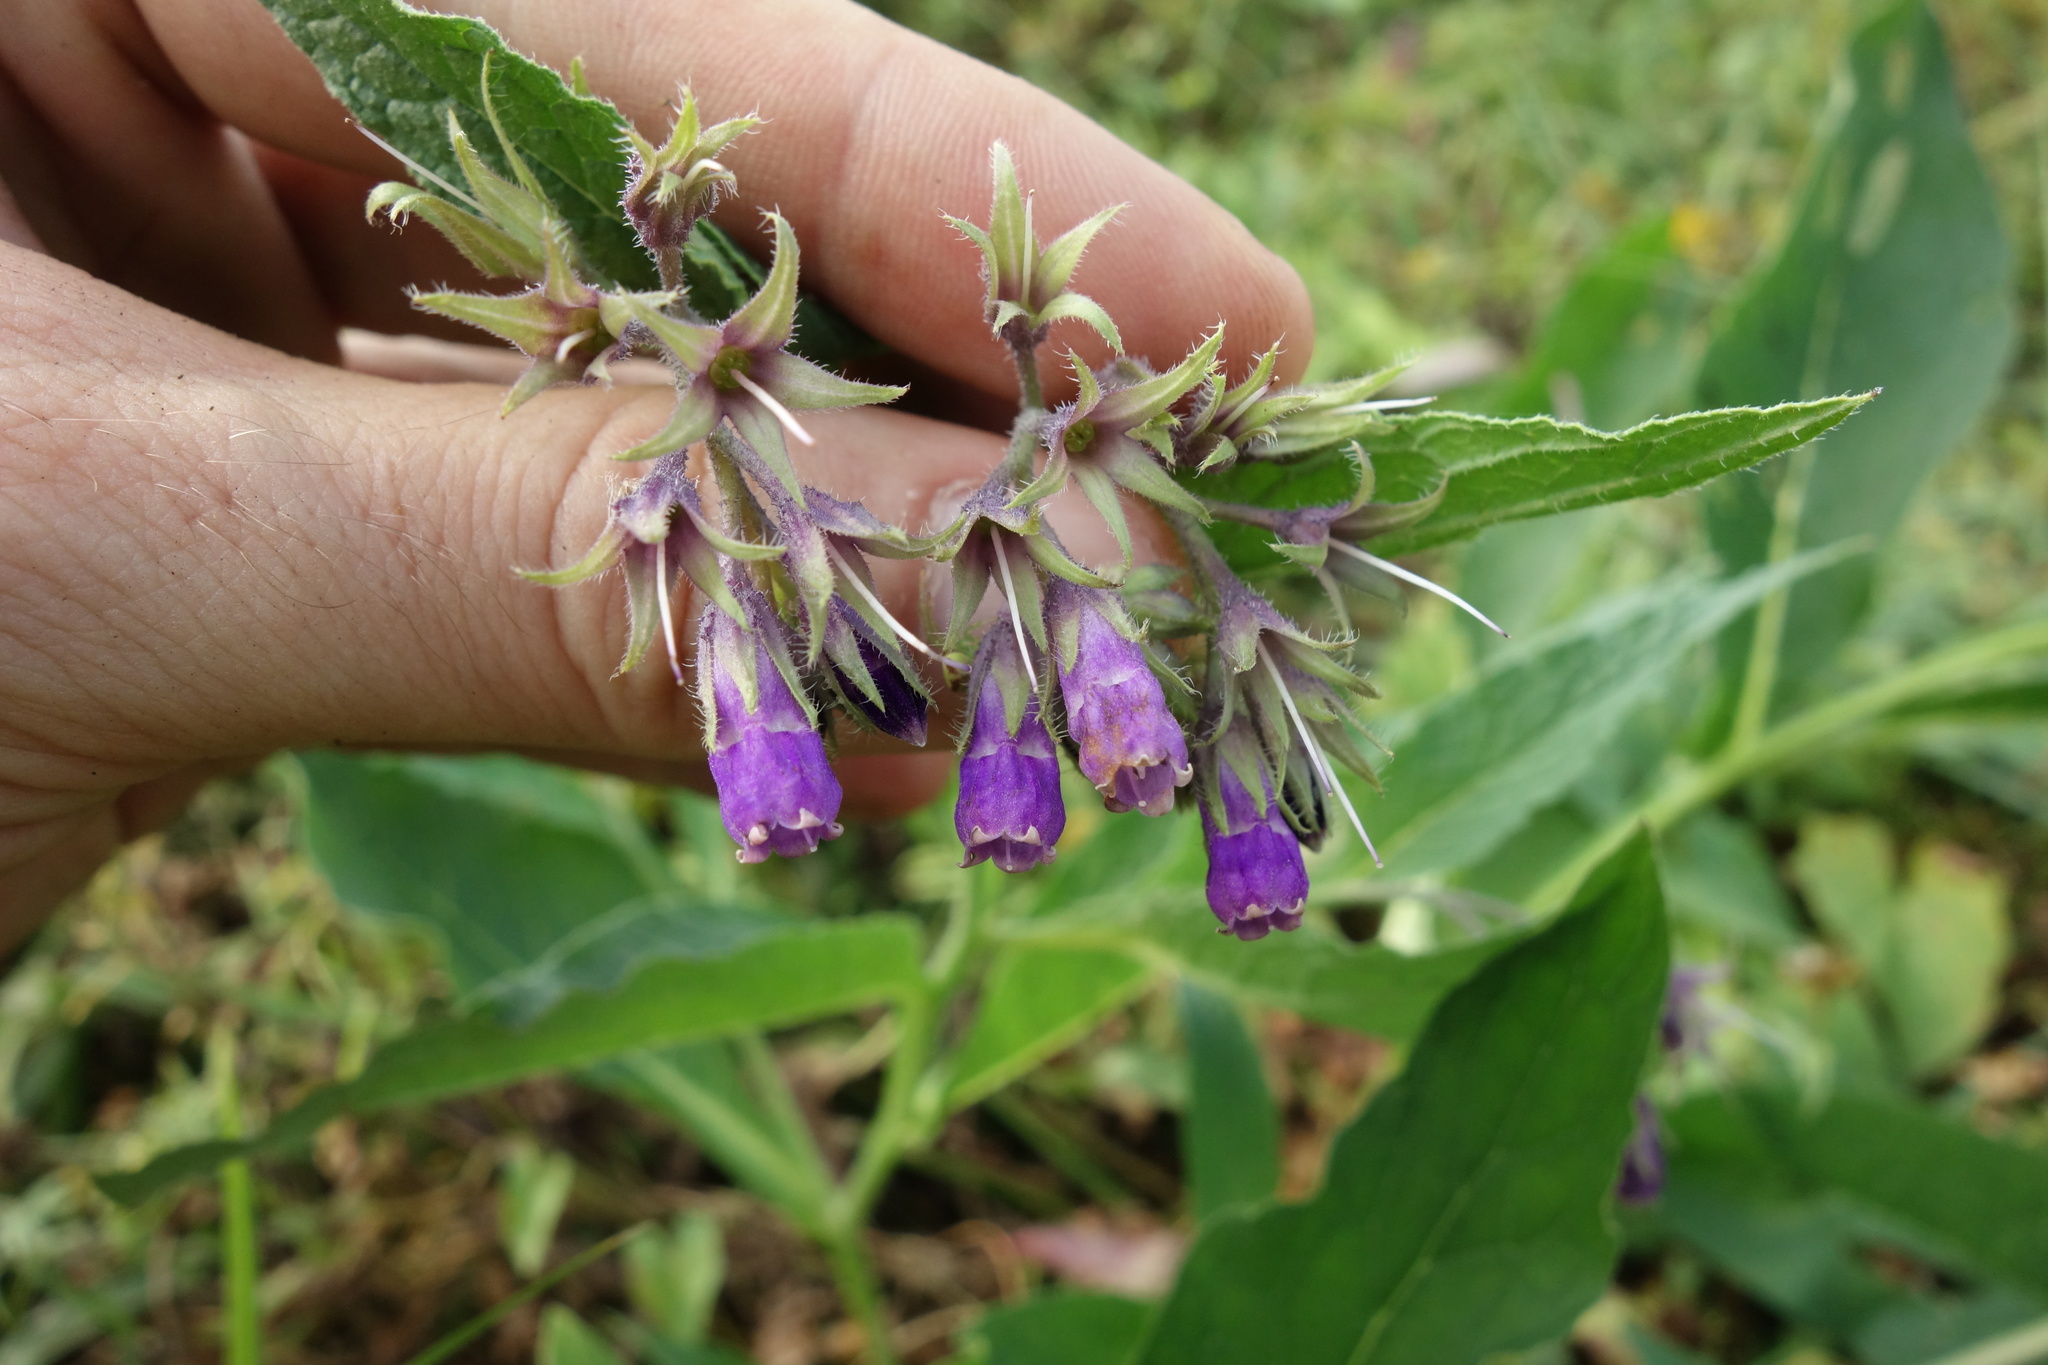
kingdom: Plantae
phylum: Tracheophyta
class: Magnoliopsida
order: Boraginales
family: Boraginaceae
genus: Symphytum
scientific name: Symphytum officinale
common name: Common comfrey
